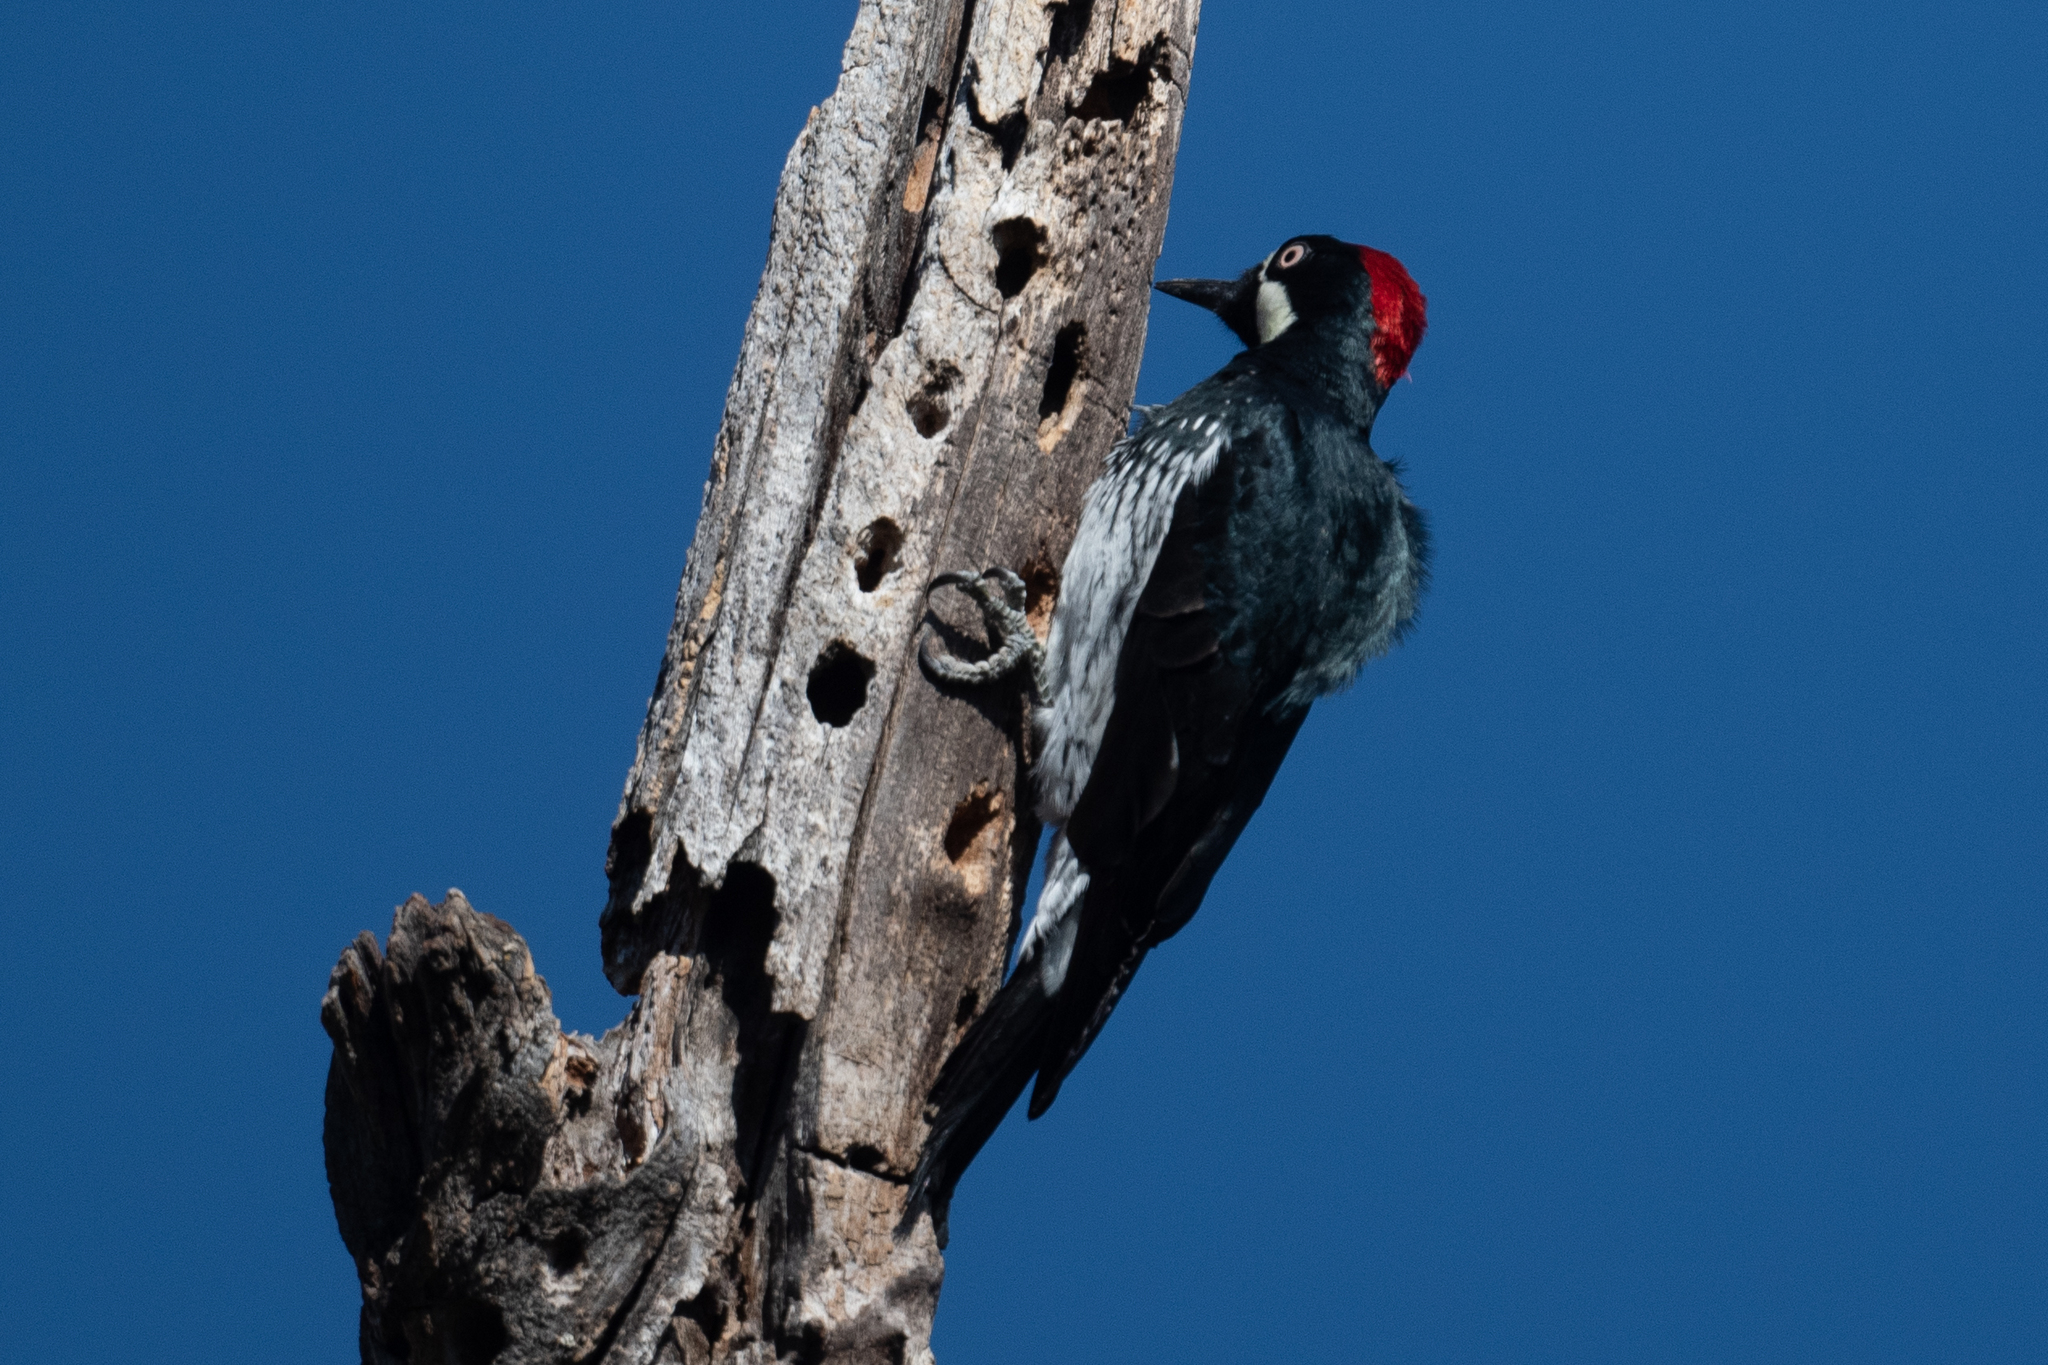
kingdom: Animalia
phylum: Chordata
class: Aves
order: Piciformes
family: Picidae
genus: Melanerpes
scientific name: Melanerpes formicivorus
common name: Acorn woodpecker
